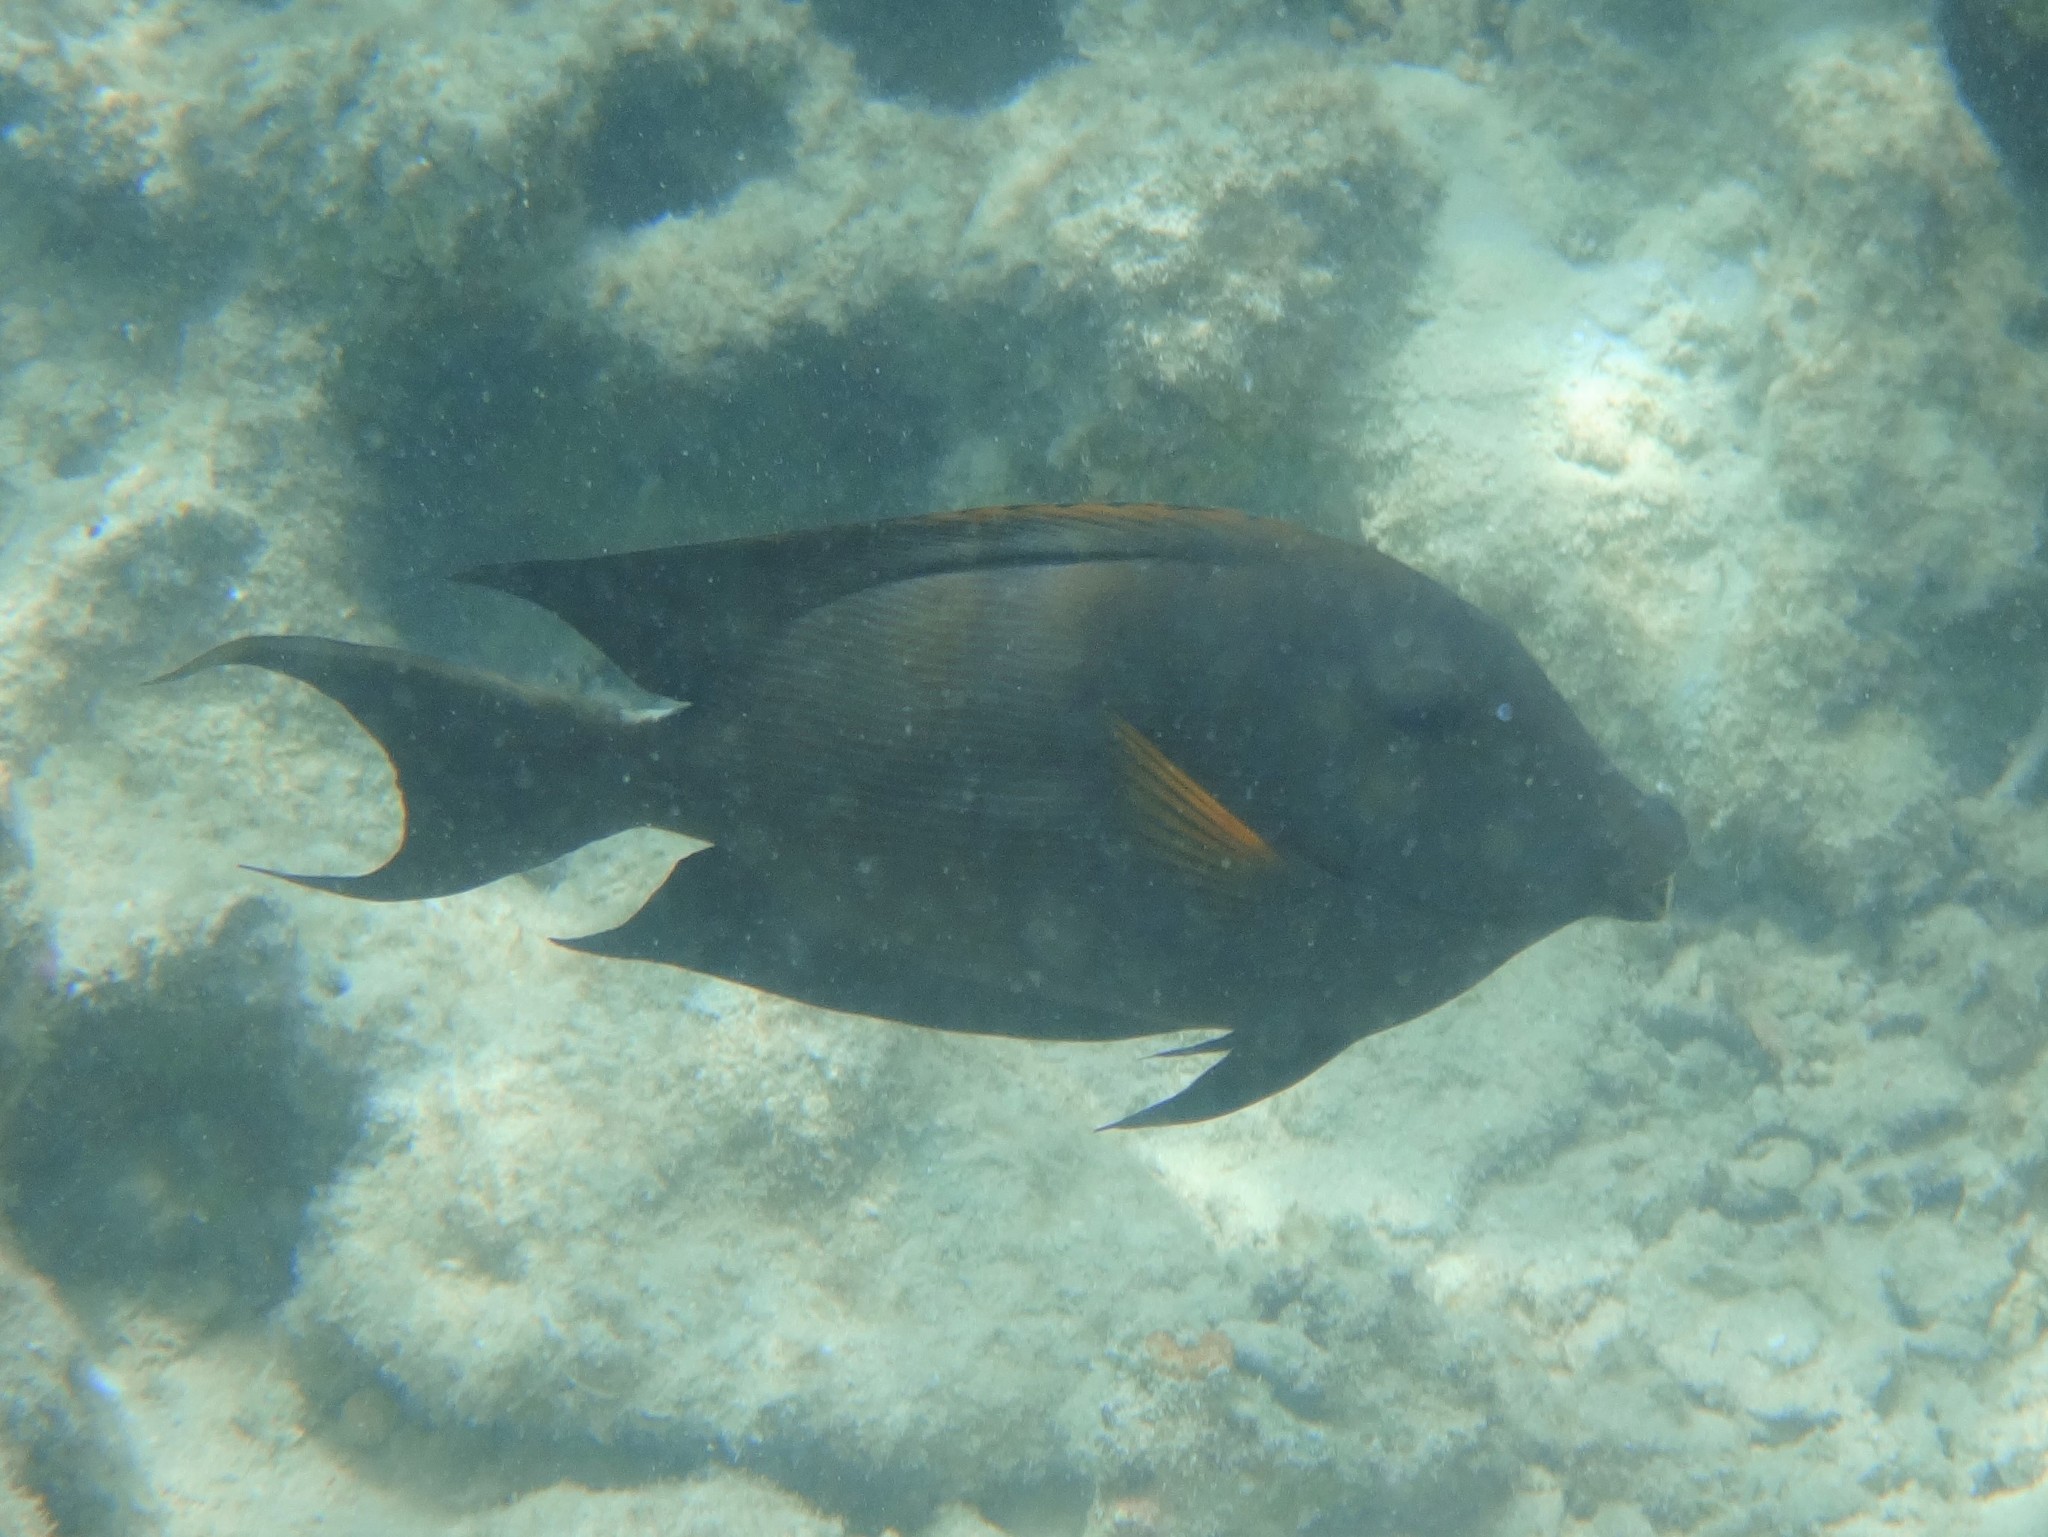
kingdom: Animalia
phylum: Chordata
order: Perciformes
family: Acanthuridae
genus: Ctenochaetus
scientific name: Ctenochaetus striatus
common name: Bristle-toothed surgeonfish
